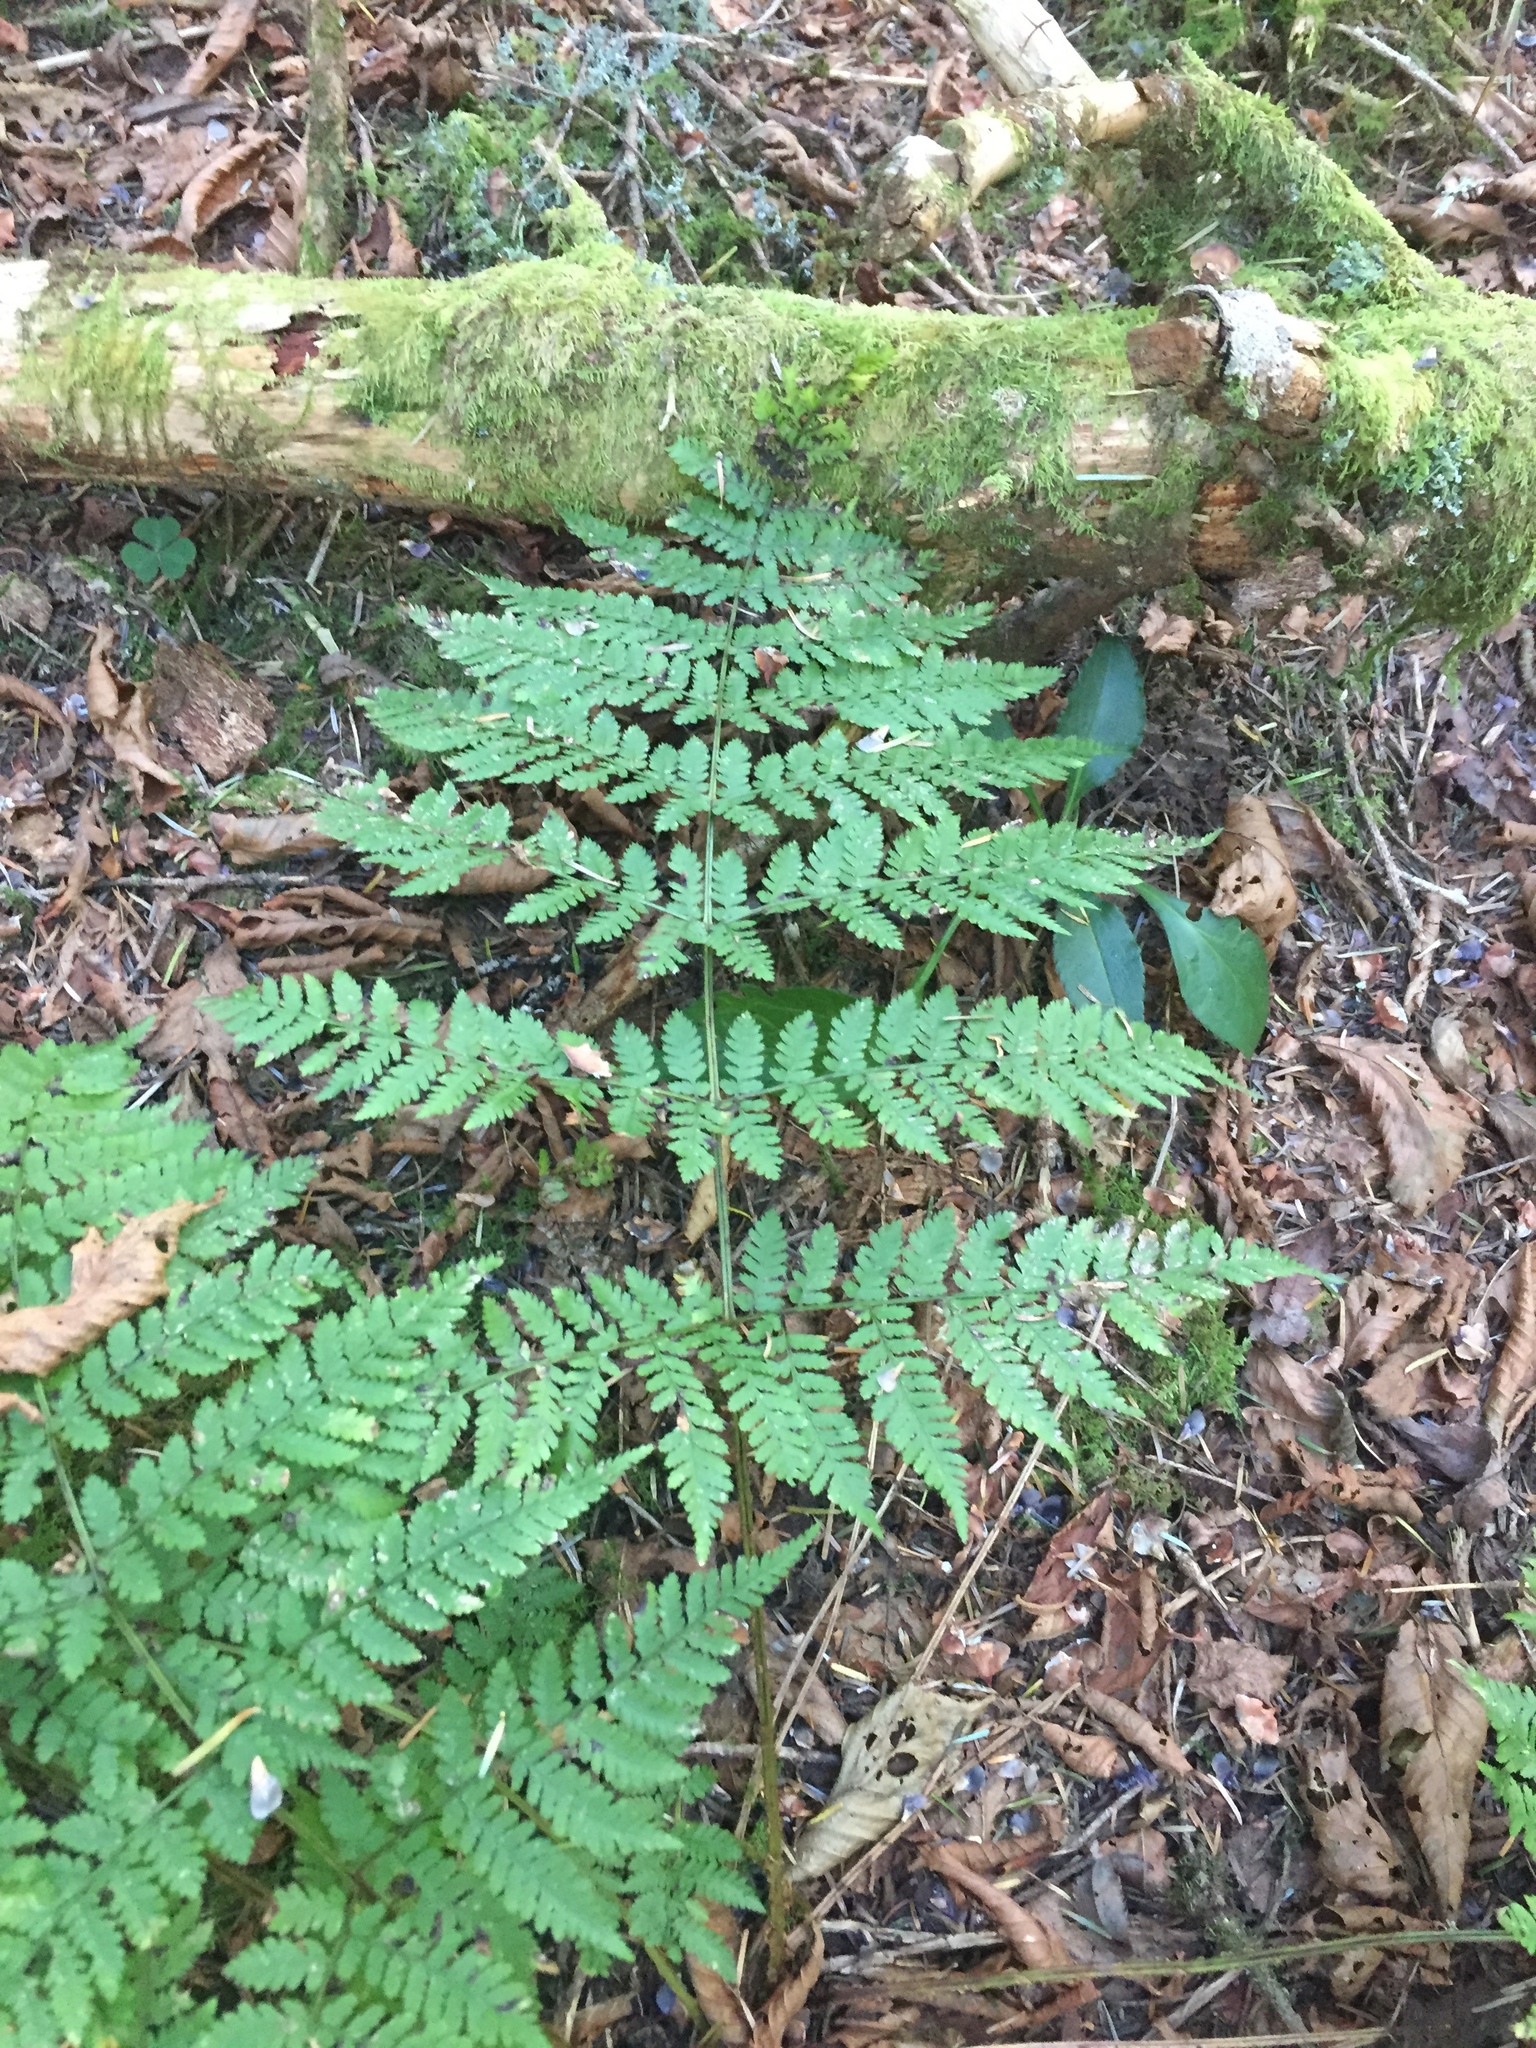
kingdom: Plantae
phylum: Tracheophyta
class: Polypodiopsida
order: Polypodiales
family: Dryopteridaceae
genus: Dryopteris
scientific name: Dryopteris campyloptera
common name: Mountain wood fern
